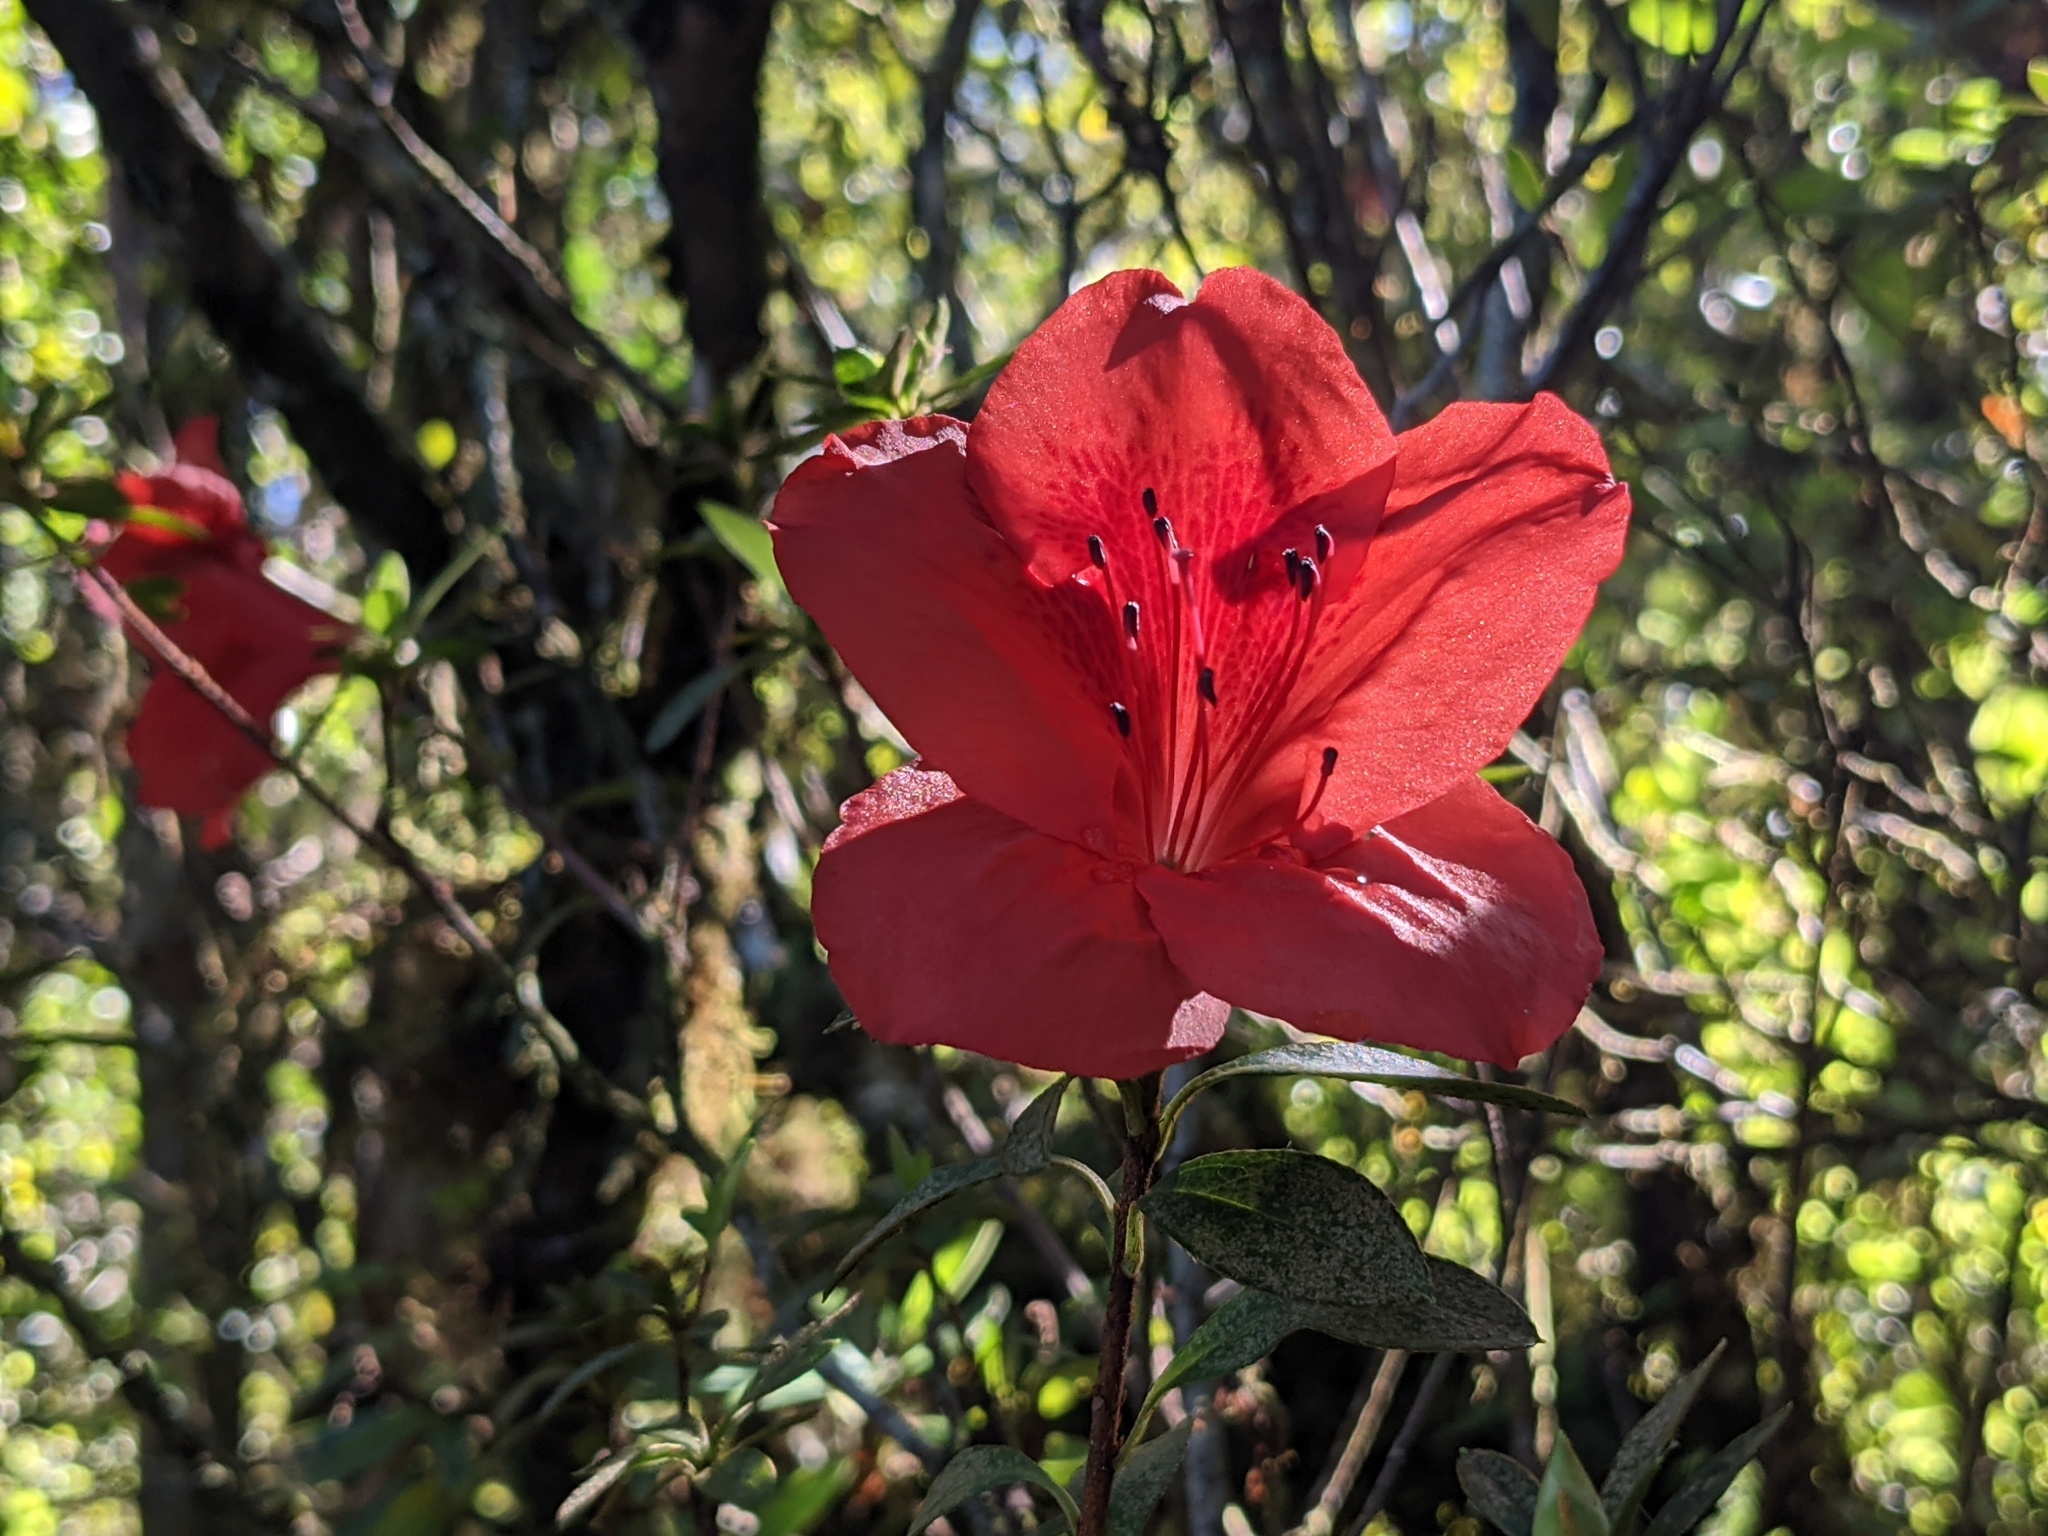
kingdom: Plantae
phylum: Tracheophyta
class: Magnoliopsida
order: Ericales
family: Ericaceae
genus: Rhododendron
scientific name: Rhododendron simsii
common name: Rhododendron
